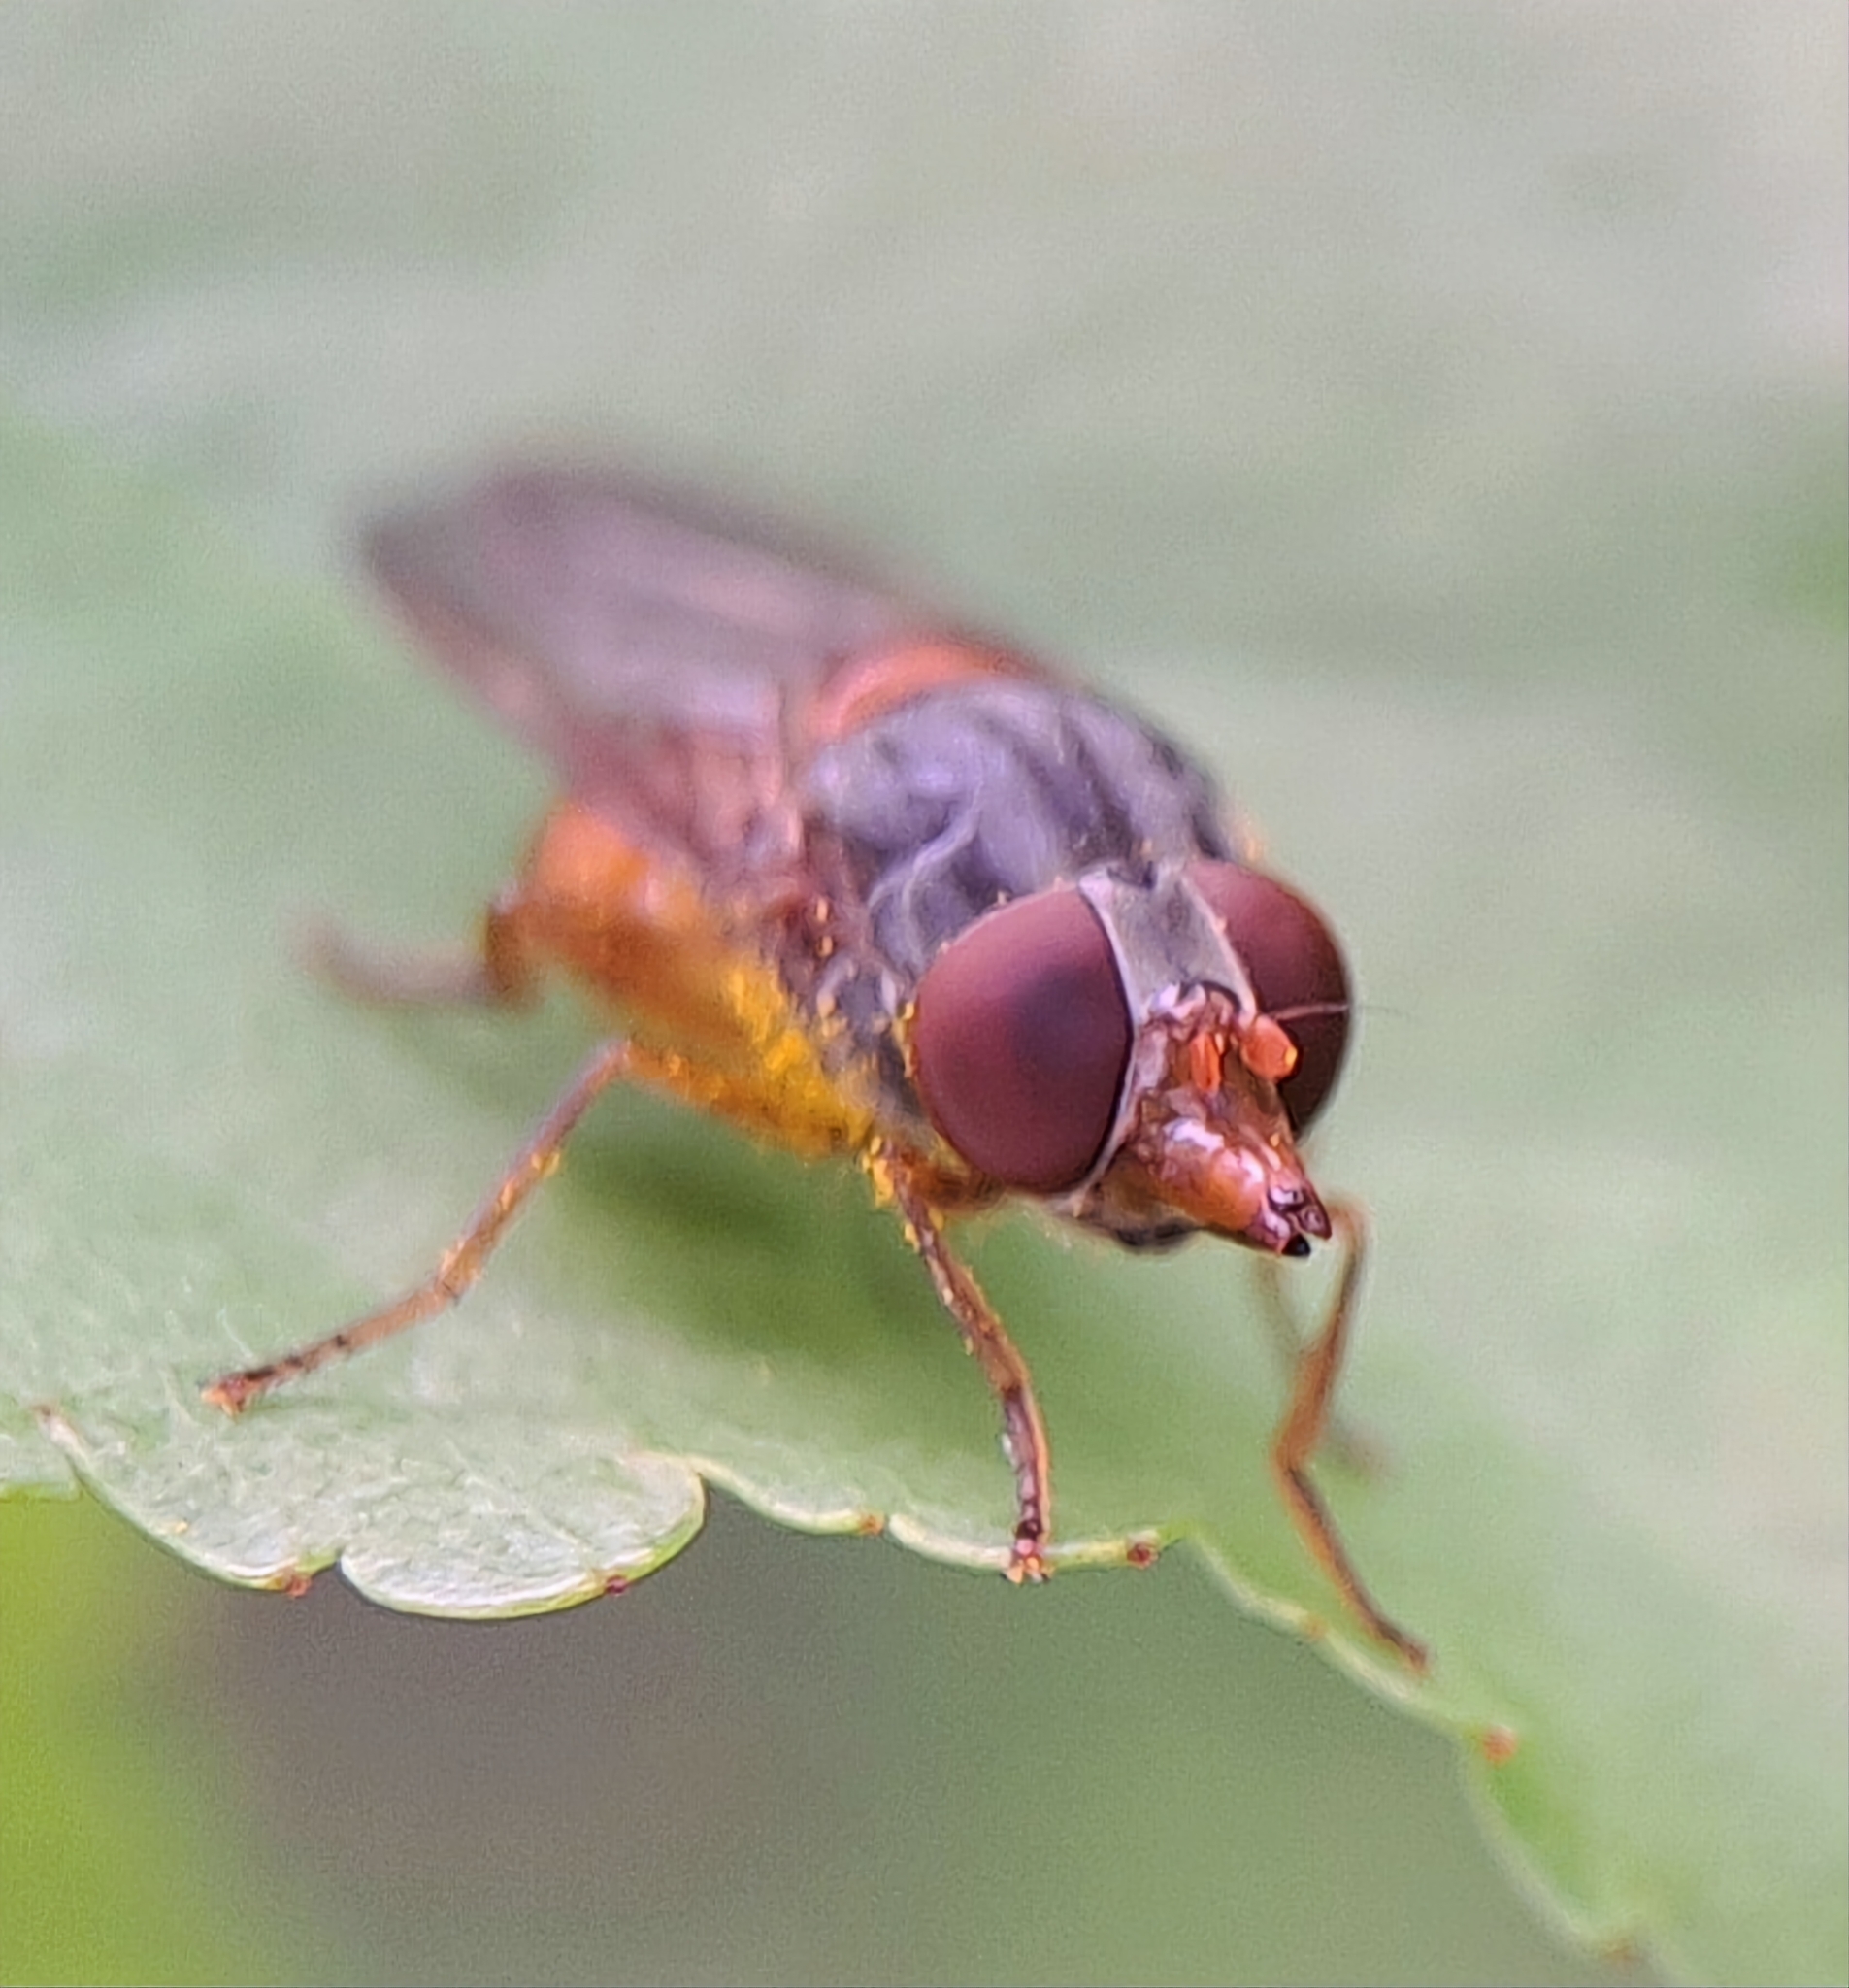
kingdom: Animalia
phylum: Arthropoda
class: Insecta
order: Diptera
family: Syrphidae
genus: Rhingia
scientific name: Rhingia rostrata
